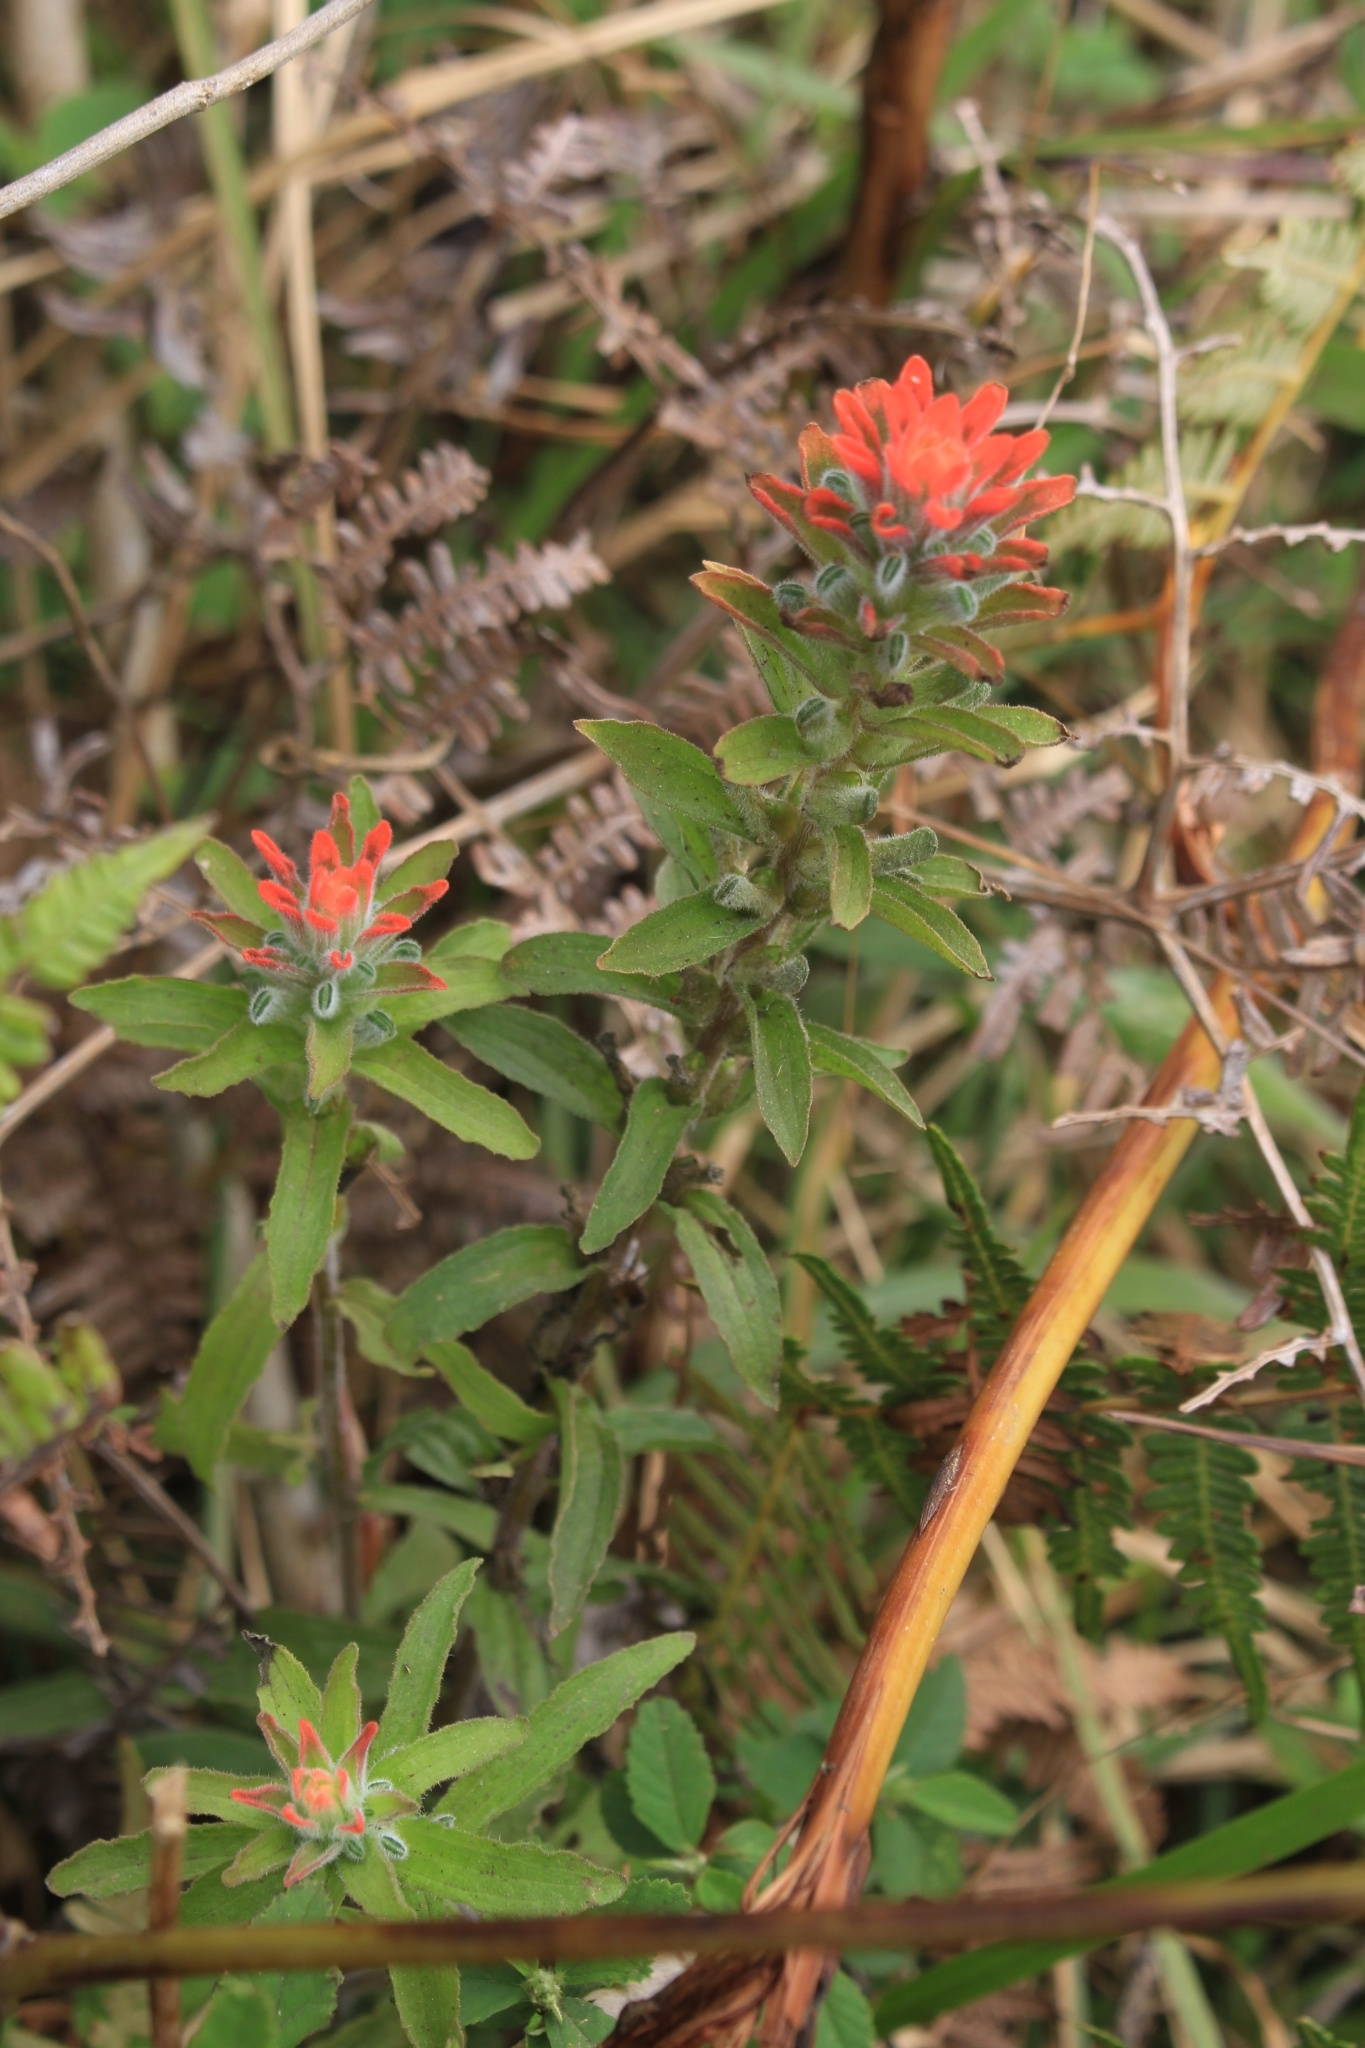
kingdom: Plantae
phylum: Tracheophyta
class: Magnoliopsida
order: Lamiales
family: Orobanchaceae
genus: Castilleja
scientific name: Castilleja arvensis
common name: Indian paintbrush
